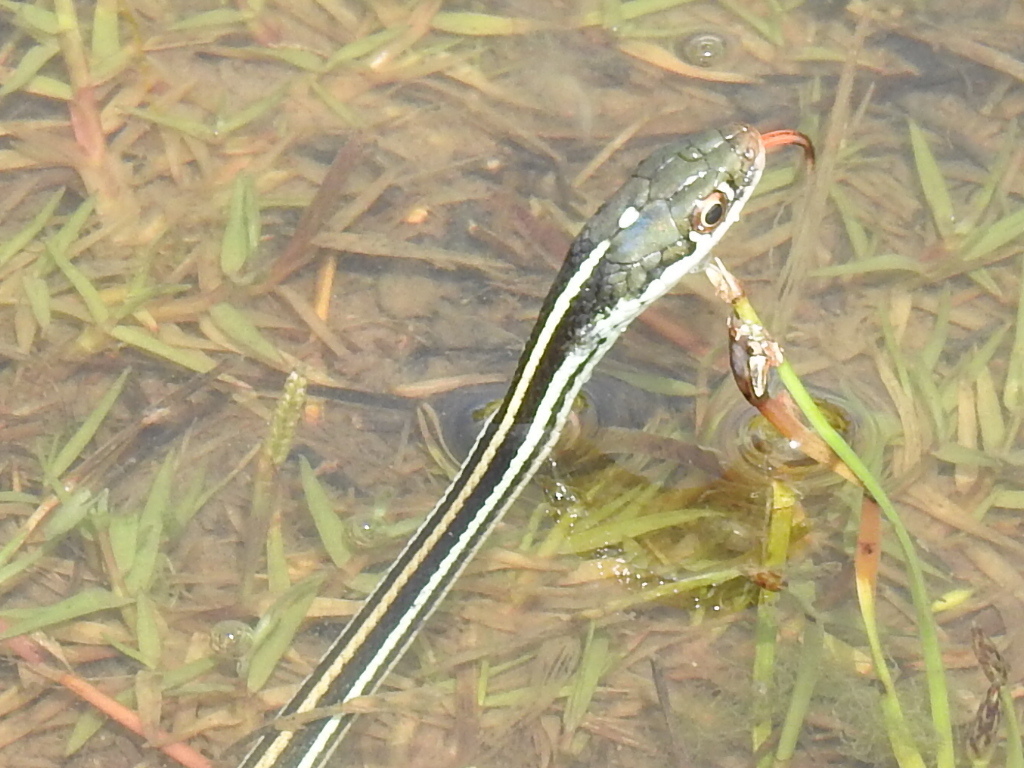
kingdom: Animalia
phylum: Chordata
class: Squamata
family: Colubridae
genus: Thamnophis
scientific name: Thamnophis proximus
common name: Western ribbon snake
